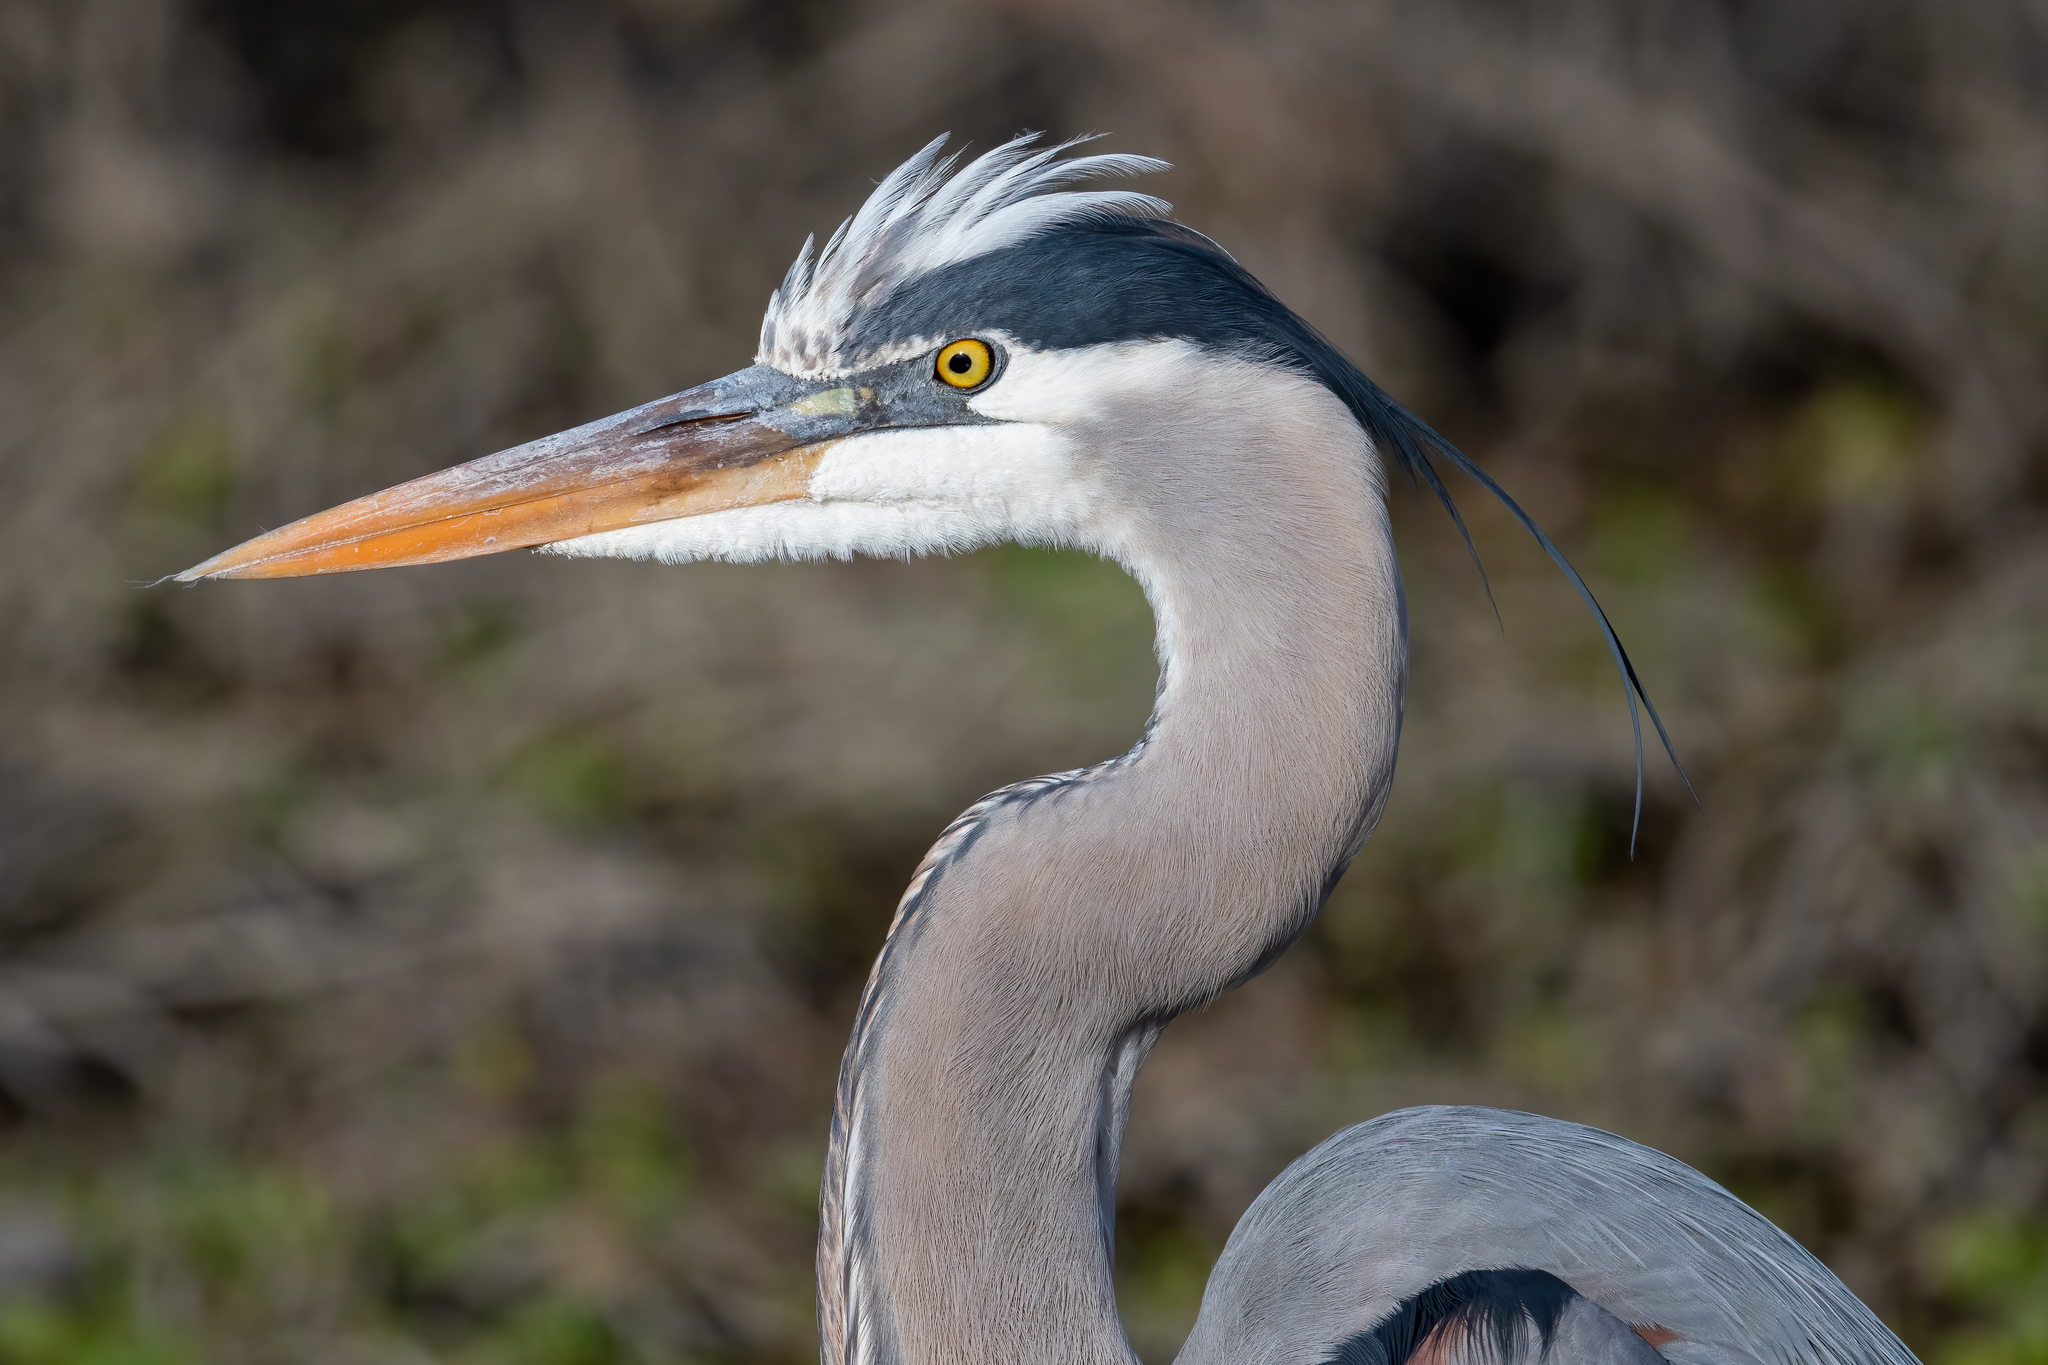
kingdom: Animalia
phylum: Chordata
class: Aves
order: Pelecaniformes
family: Ardeidae
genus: Ardea
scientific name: Ardea herodias
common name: Great blue heron
